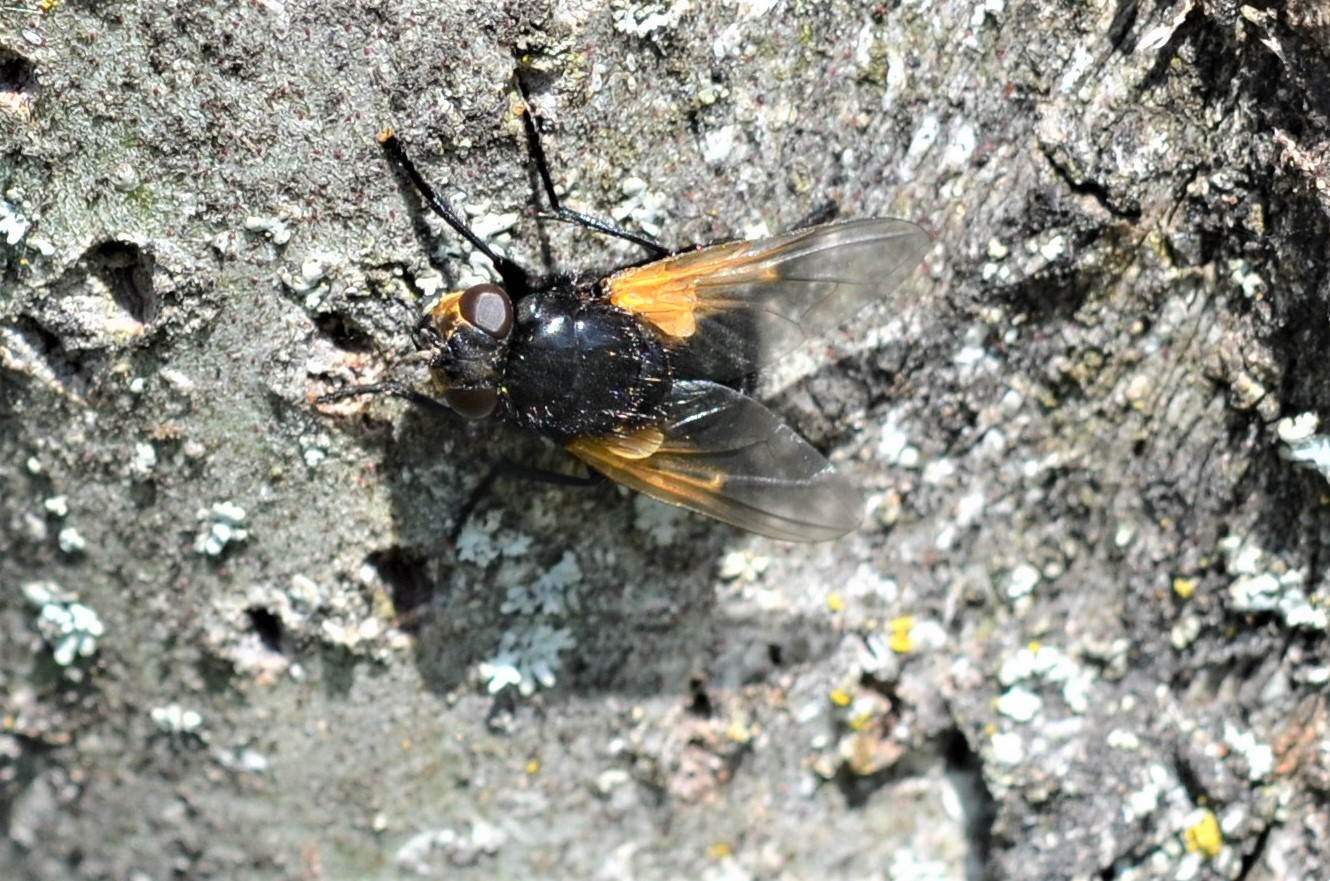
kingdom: Animalia
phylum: Arthropoda
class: Insecta
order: Diptera
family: Muscidae
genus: Mesembrina
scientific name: Mesembrina meridiana
